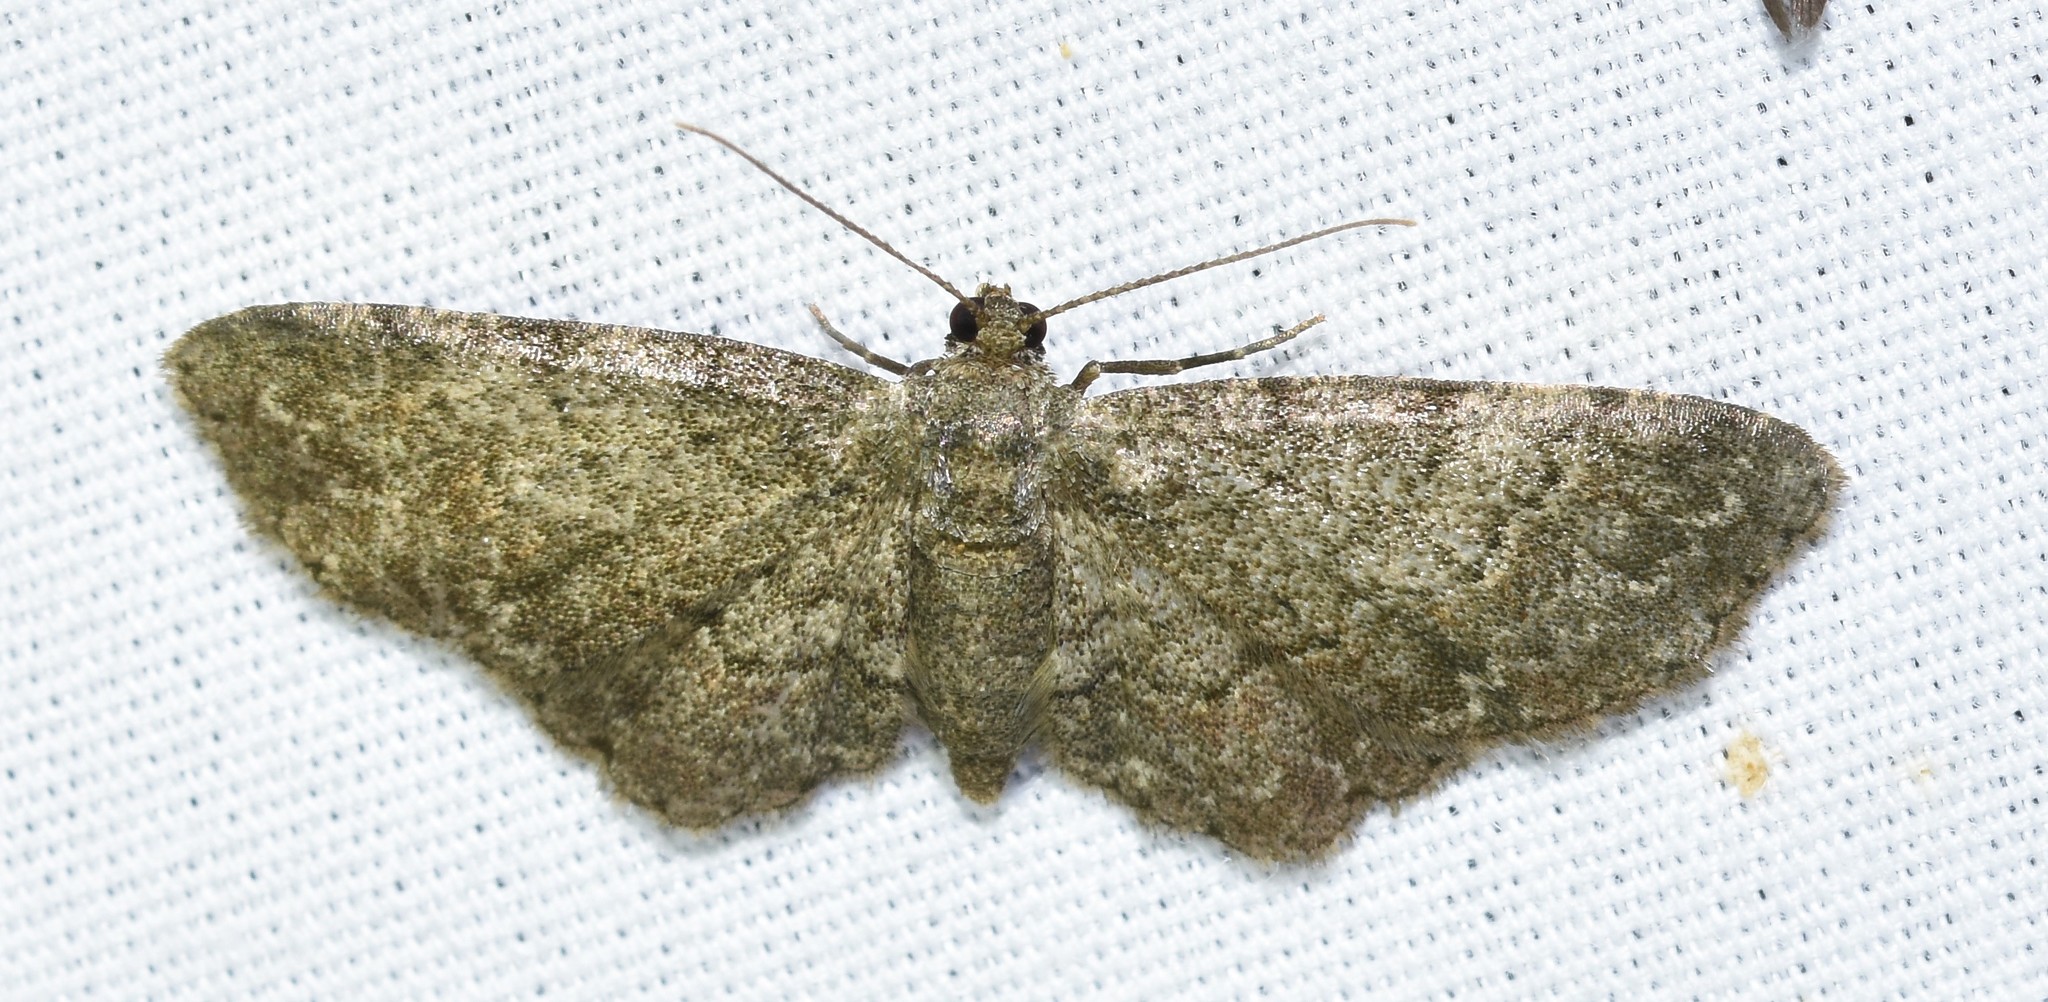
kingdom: Animalia
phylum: Arthropoda
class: Insecta
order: Lepidoptera
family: Geometridae
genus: Glenoides
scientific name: Glenoides texanaria
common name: Texas gray
